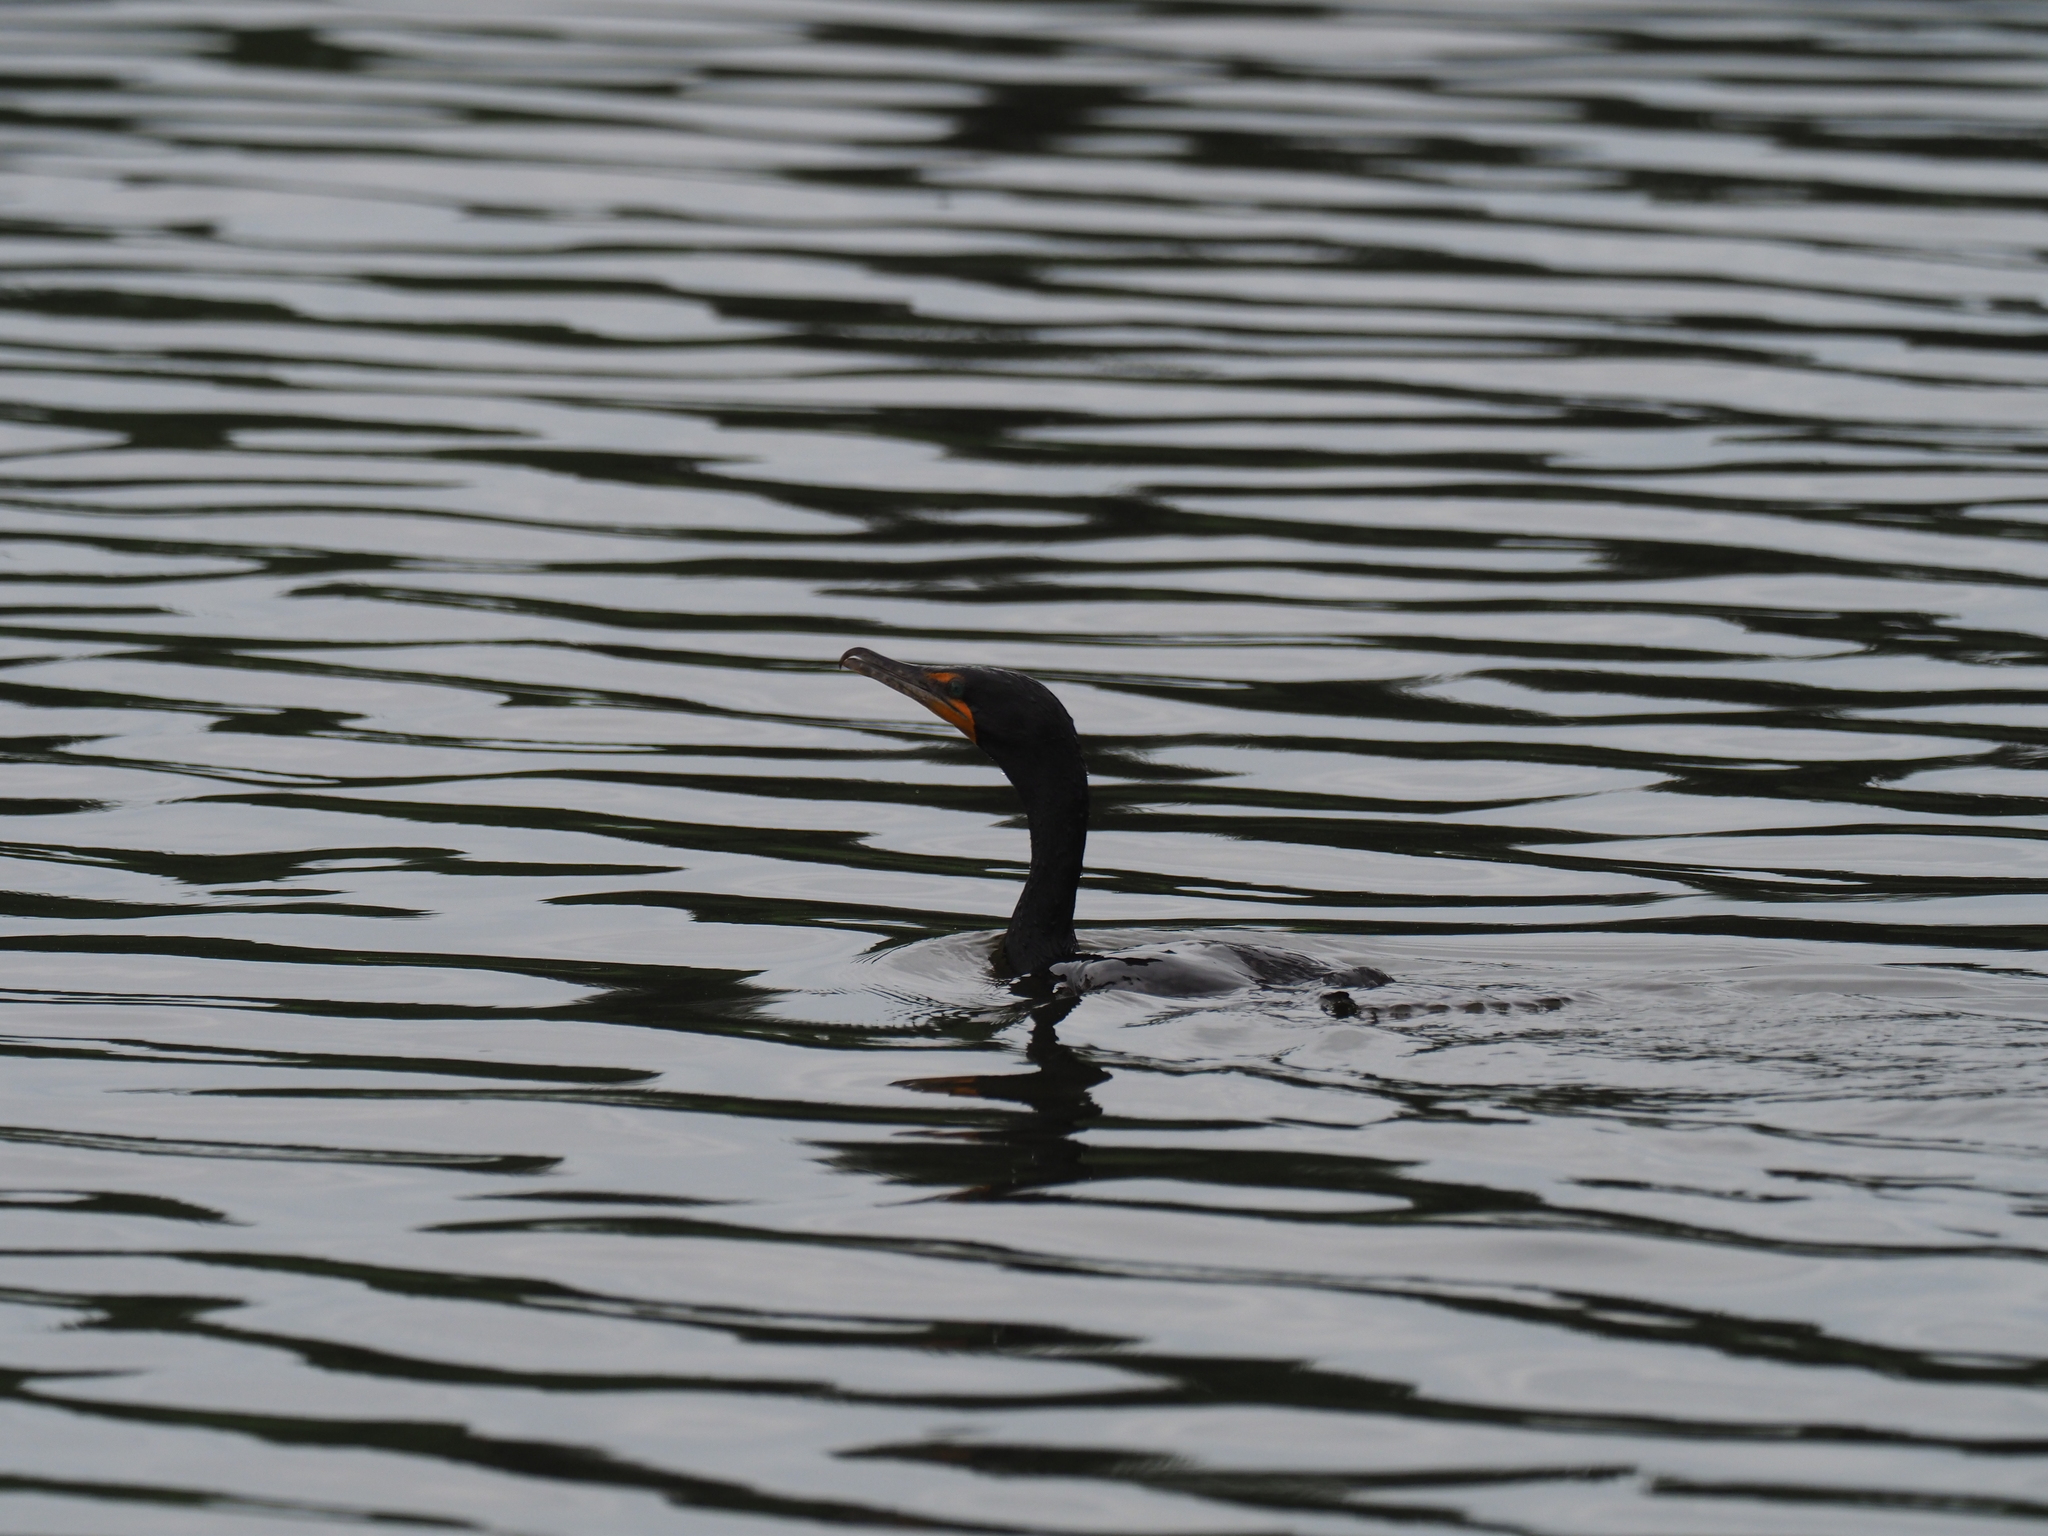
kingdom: Animalia
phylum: Chordata
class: Aves
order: Suliformes
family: Phalacrocoracidae
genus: Phalacrocorax
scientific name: Phalacrocorax auritus
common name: Double-crested cormorant
